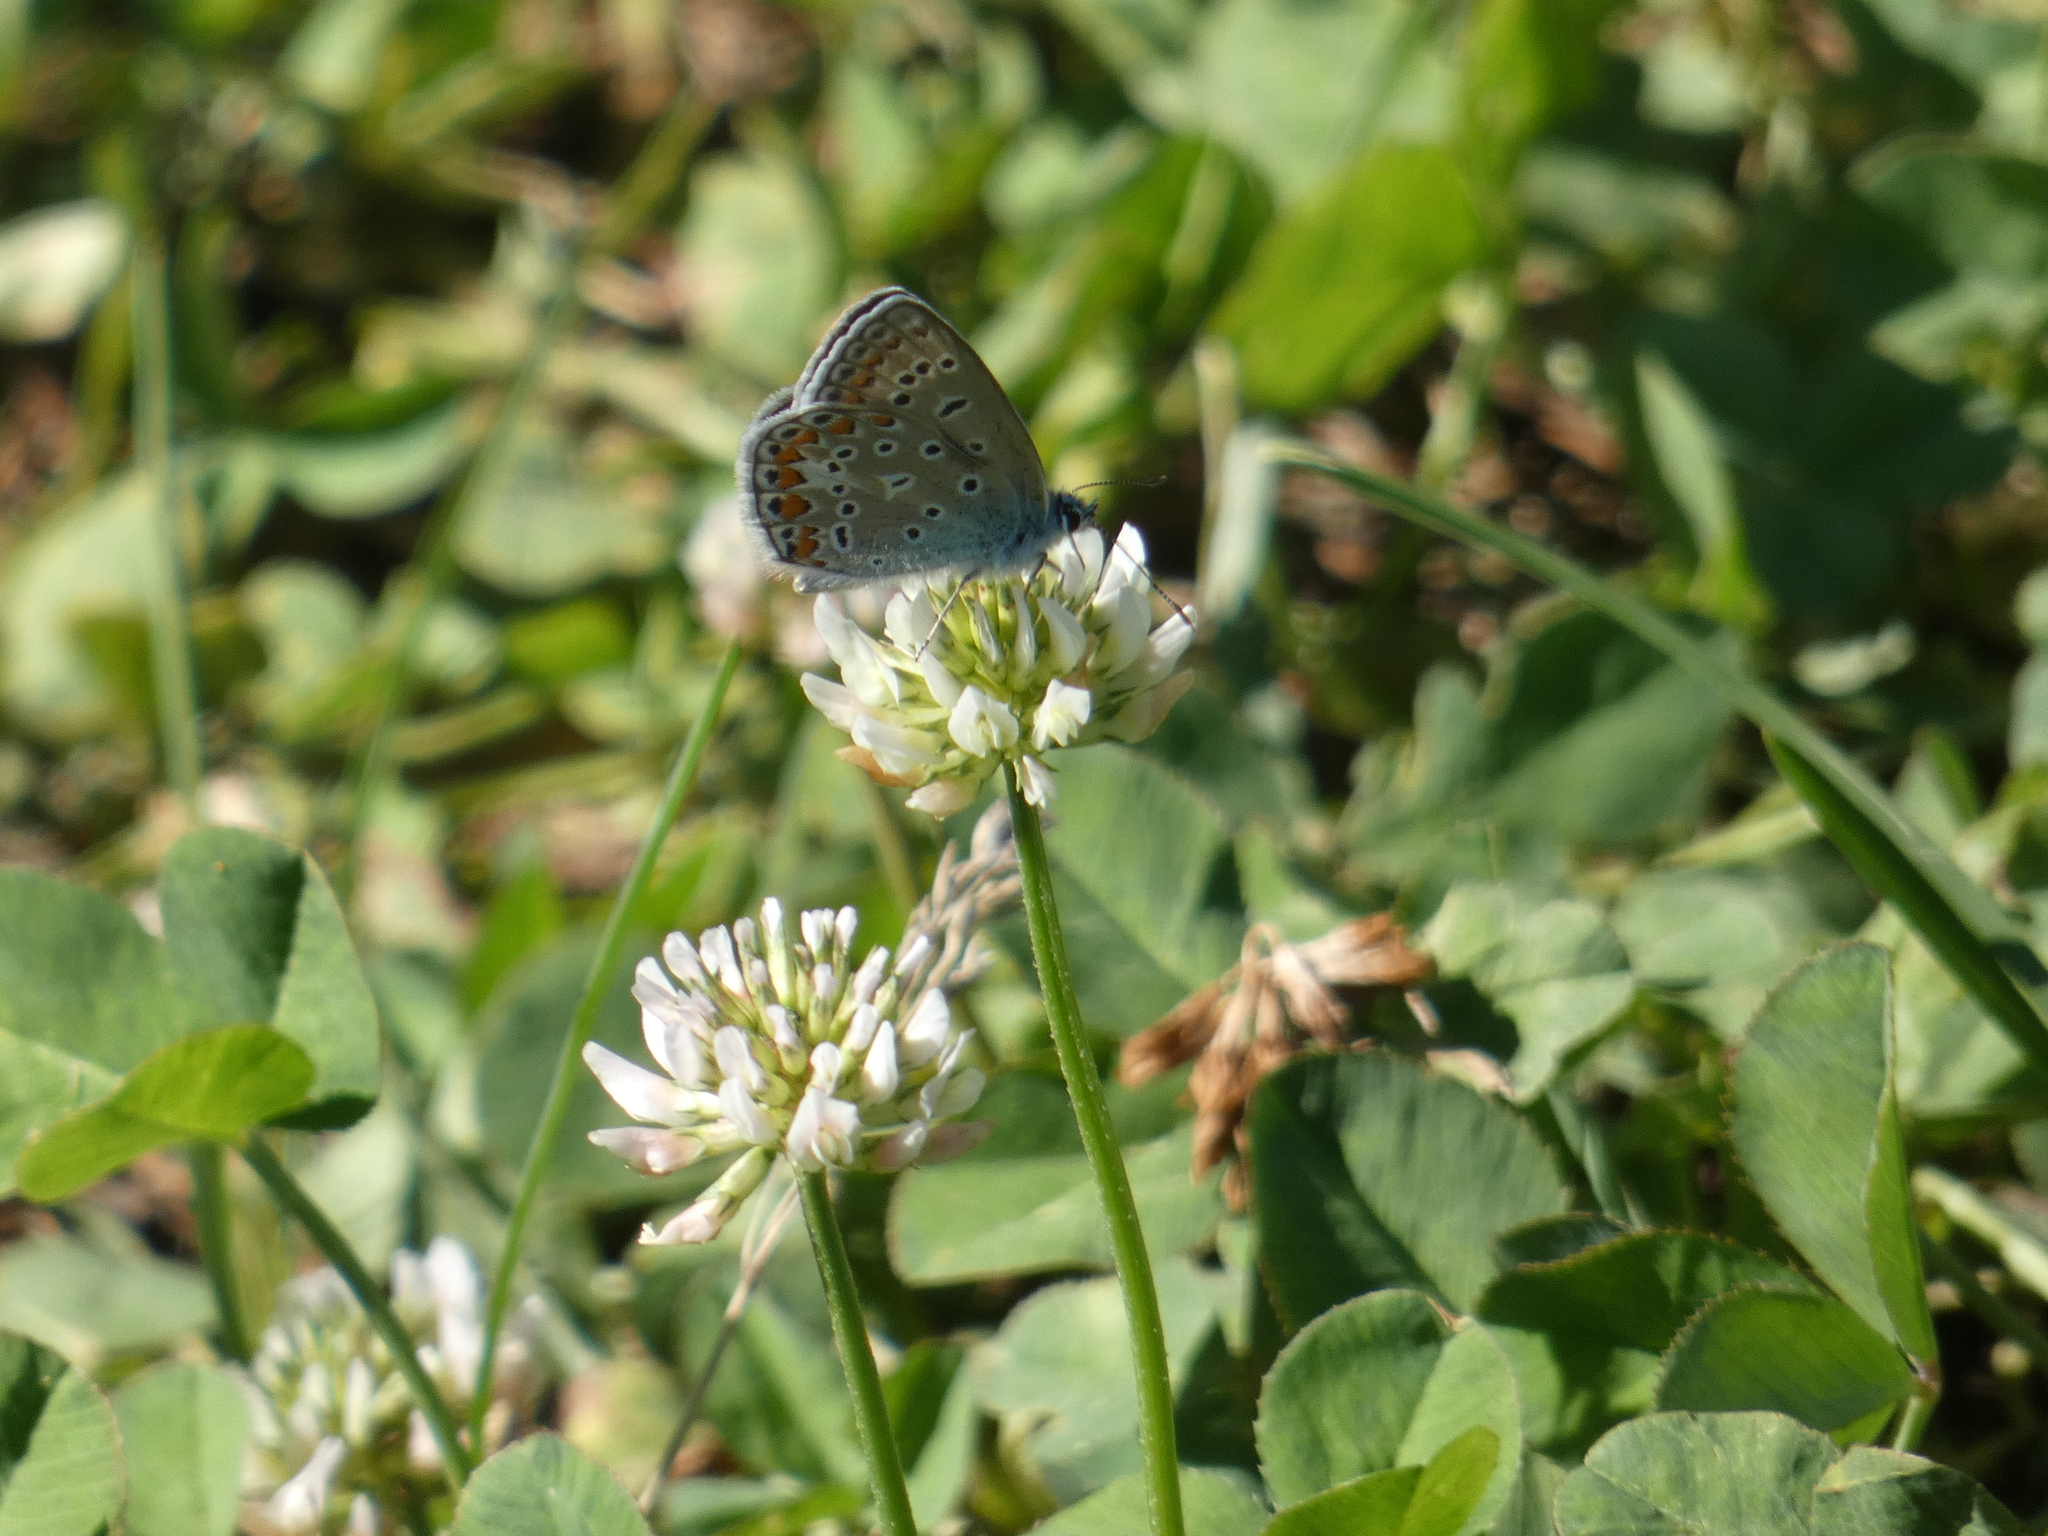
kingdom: Animalia
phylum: Arthropoda
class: Insecta
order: Lepidoptera
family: Lycaenidae
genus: Polyommatus
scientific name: Polyommatus icarus
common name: Common blue
